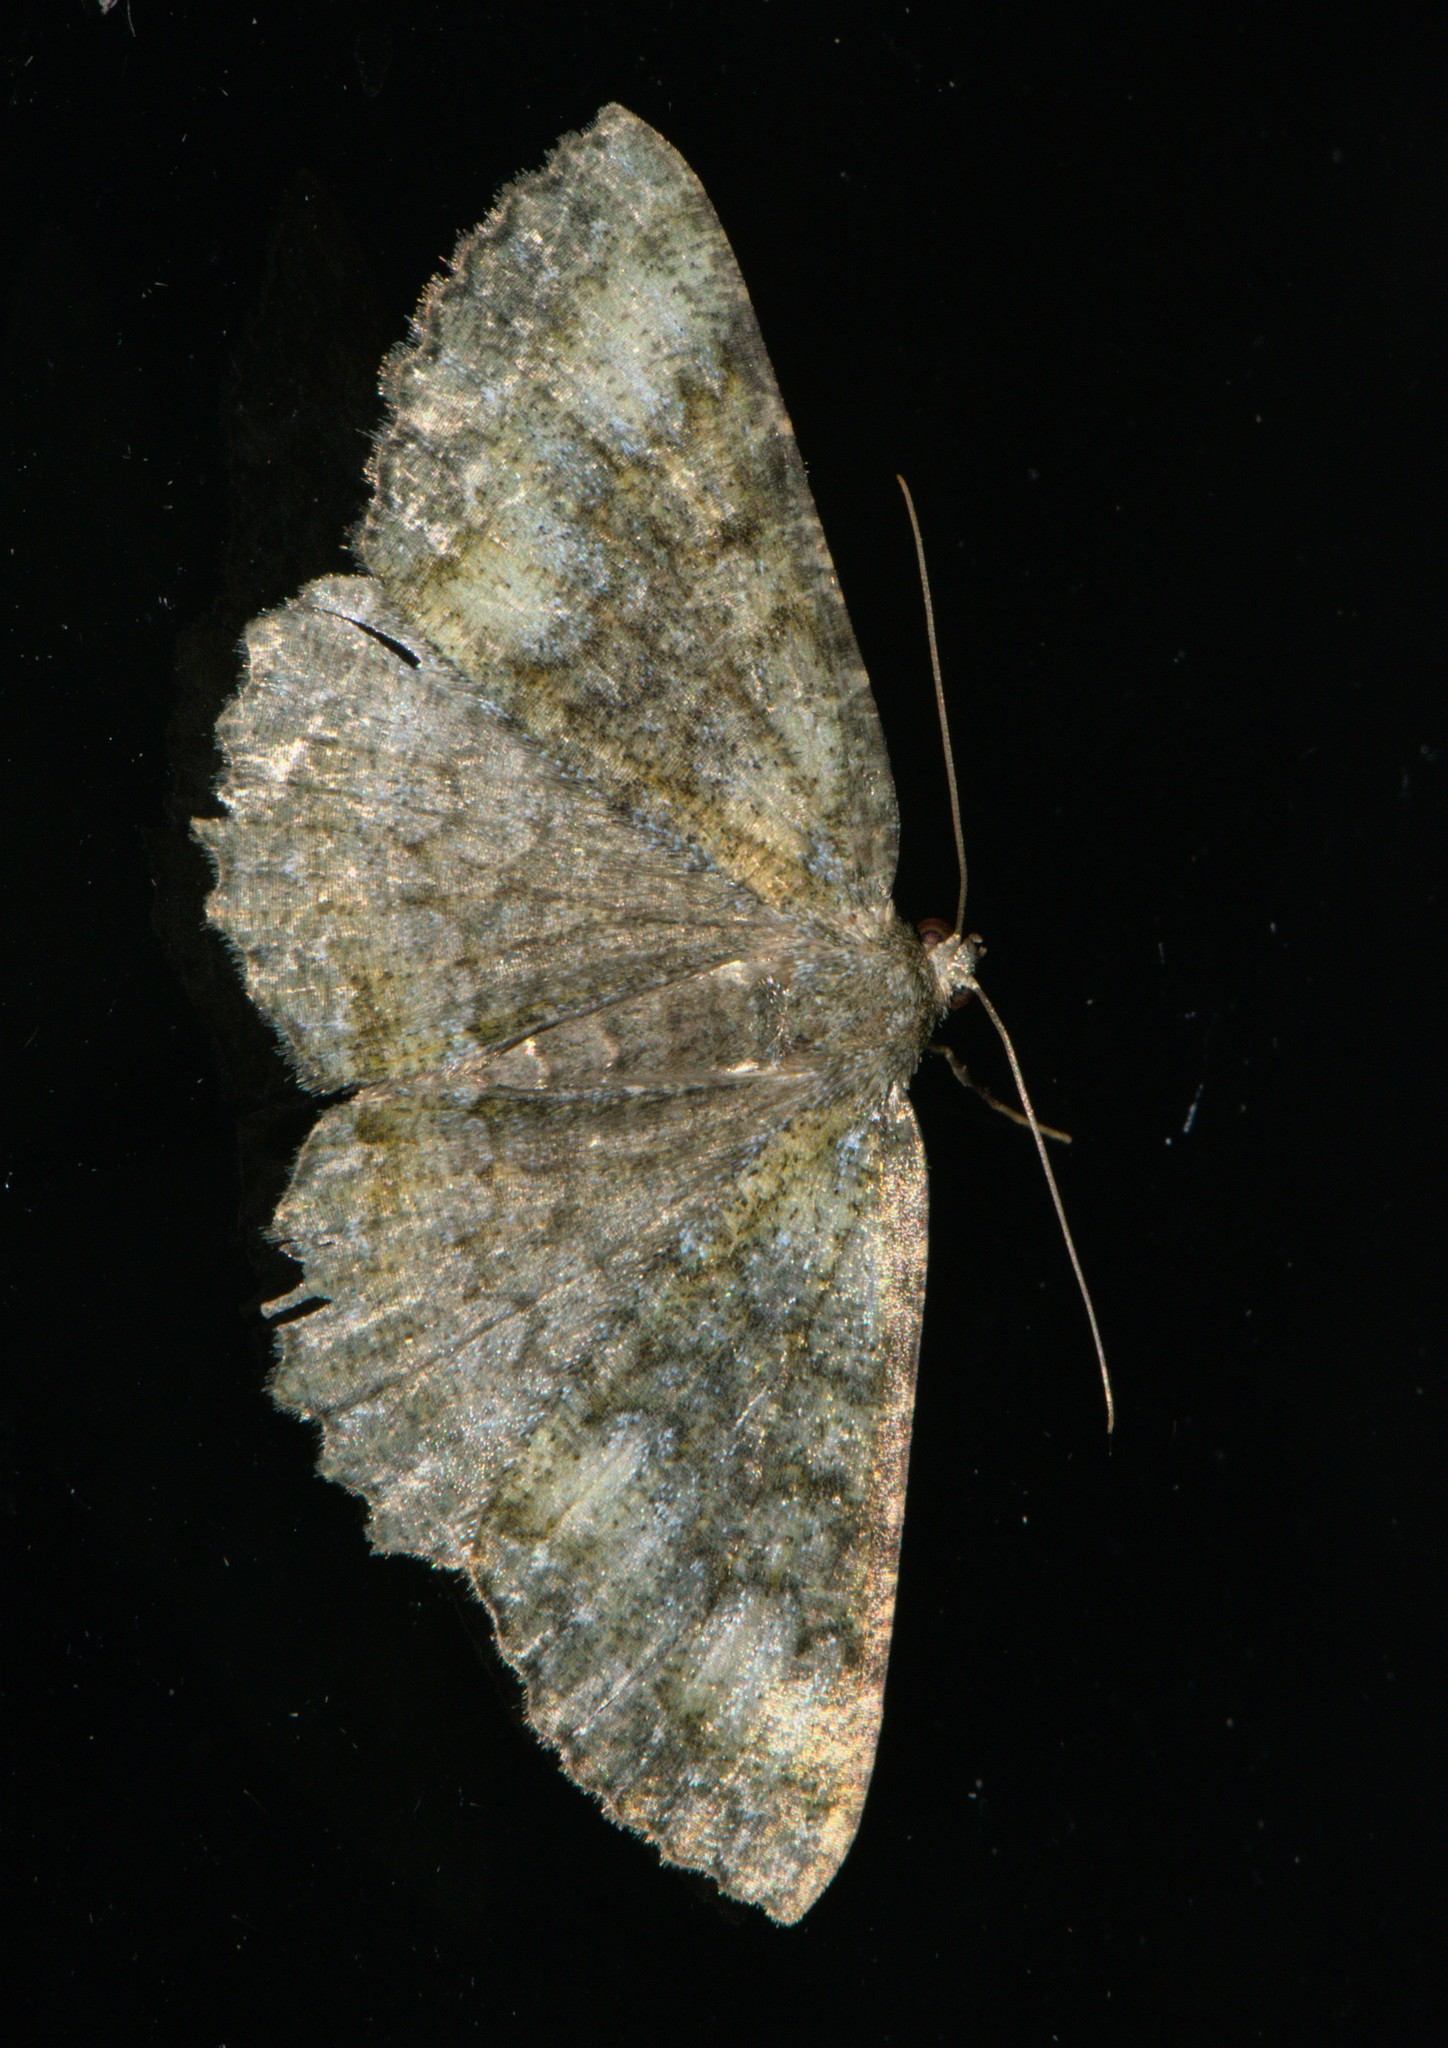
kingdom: Animalia
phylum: Arthropoda
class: Insecta
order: Lepidoptera
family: Geometridae
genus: Hirasa
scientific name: Hirasa muscosaria
